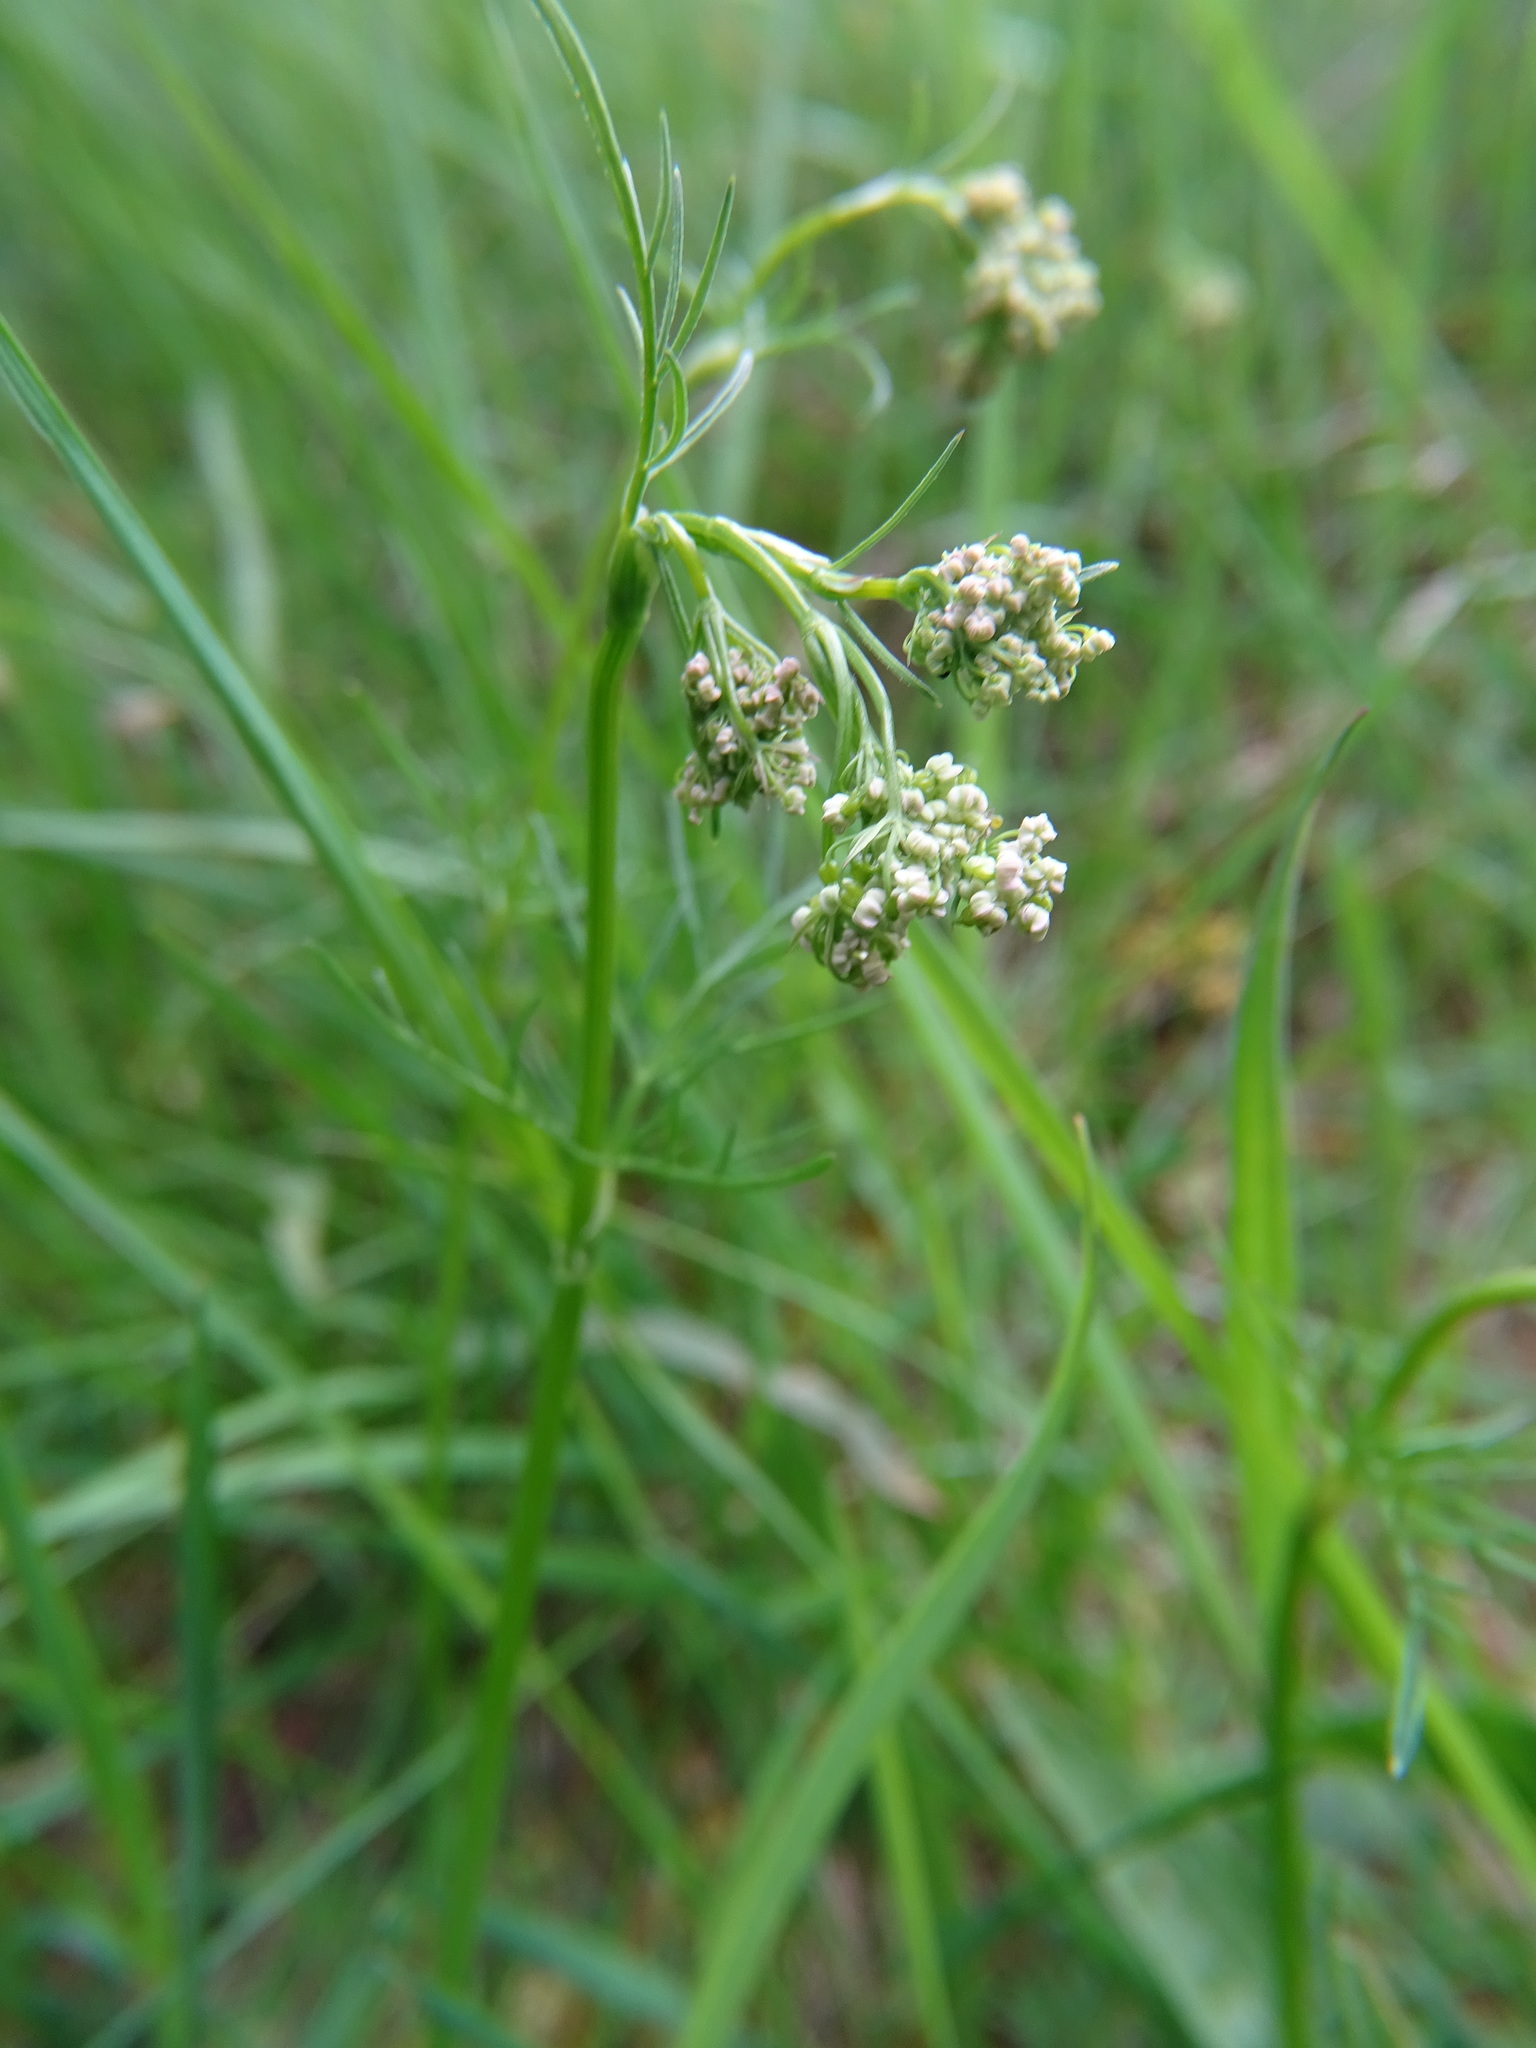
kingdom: Plantae
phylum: Tracheophyta
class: Magnoliopsida
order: Apiales
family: Apiaceae
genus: Conopodium
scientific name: Conopodium majus
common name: Pignut
